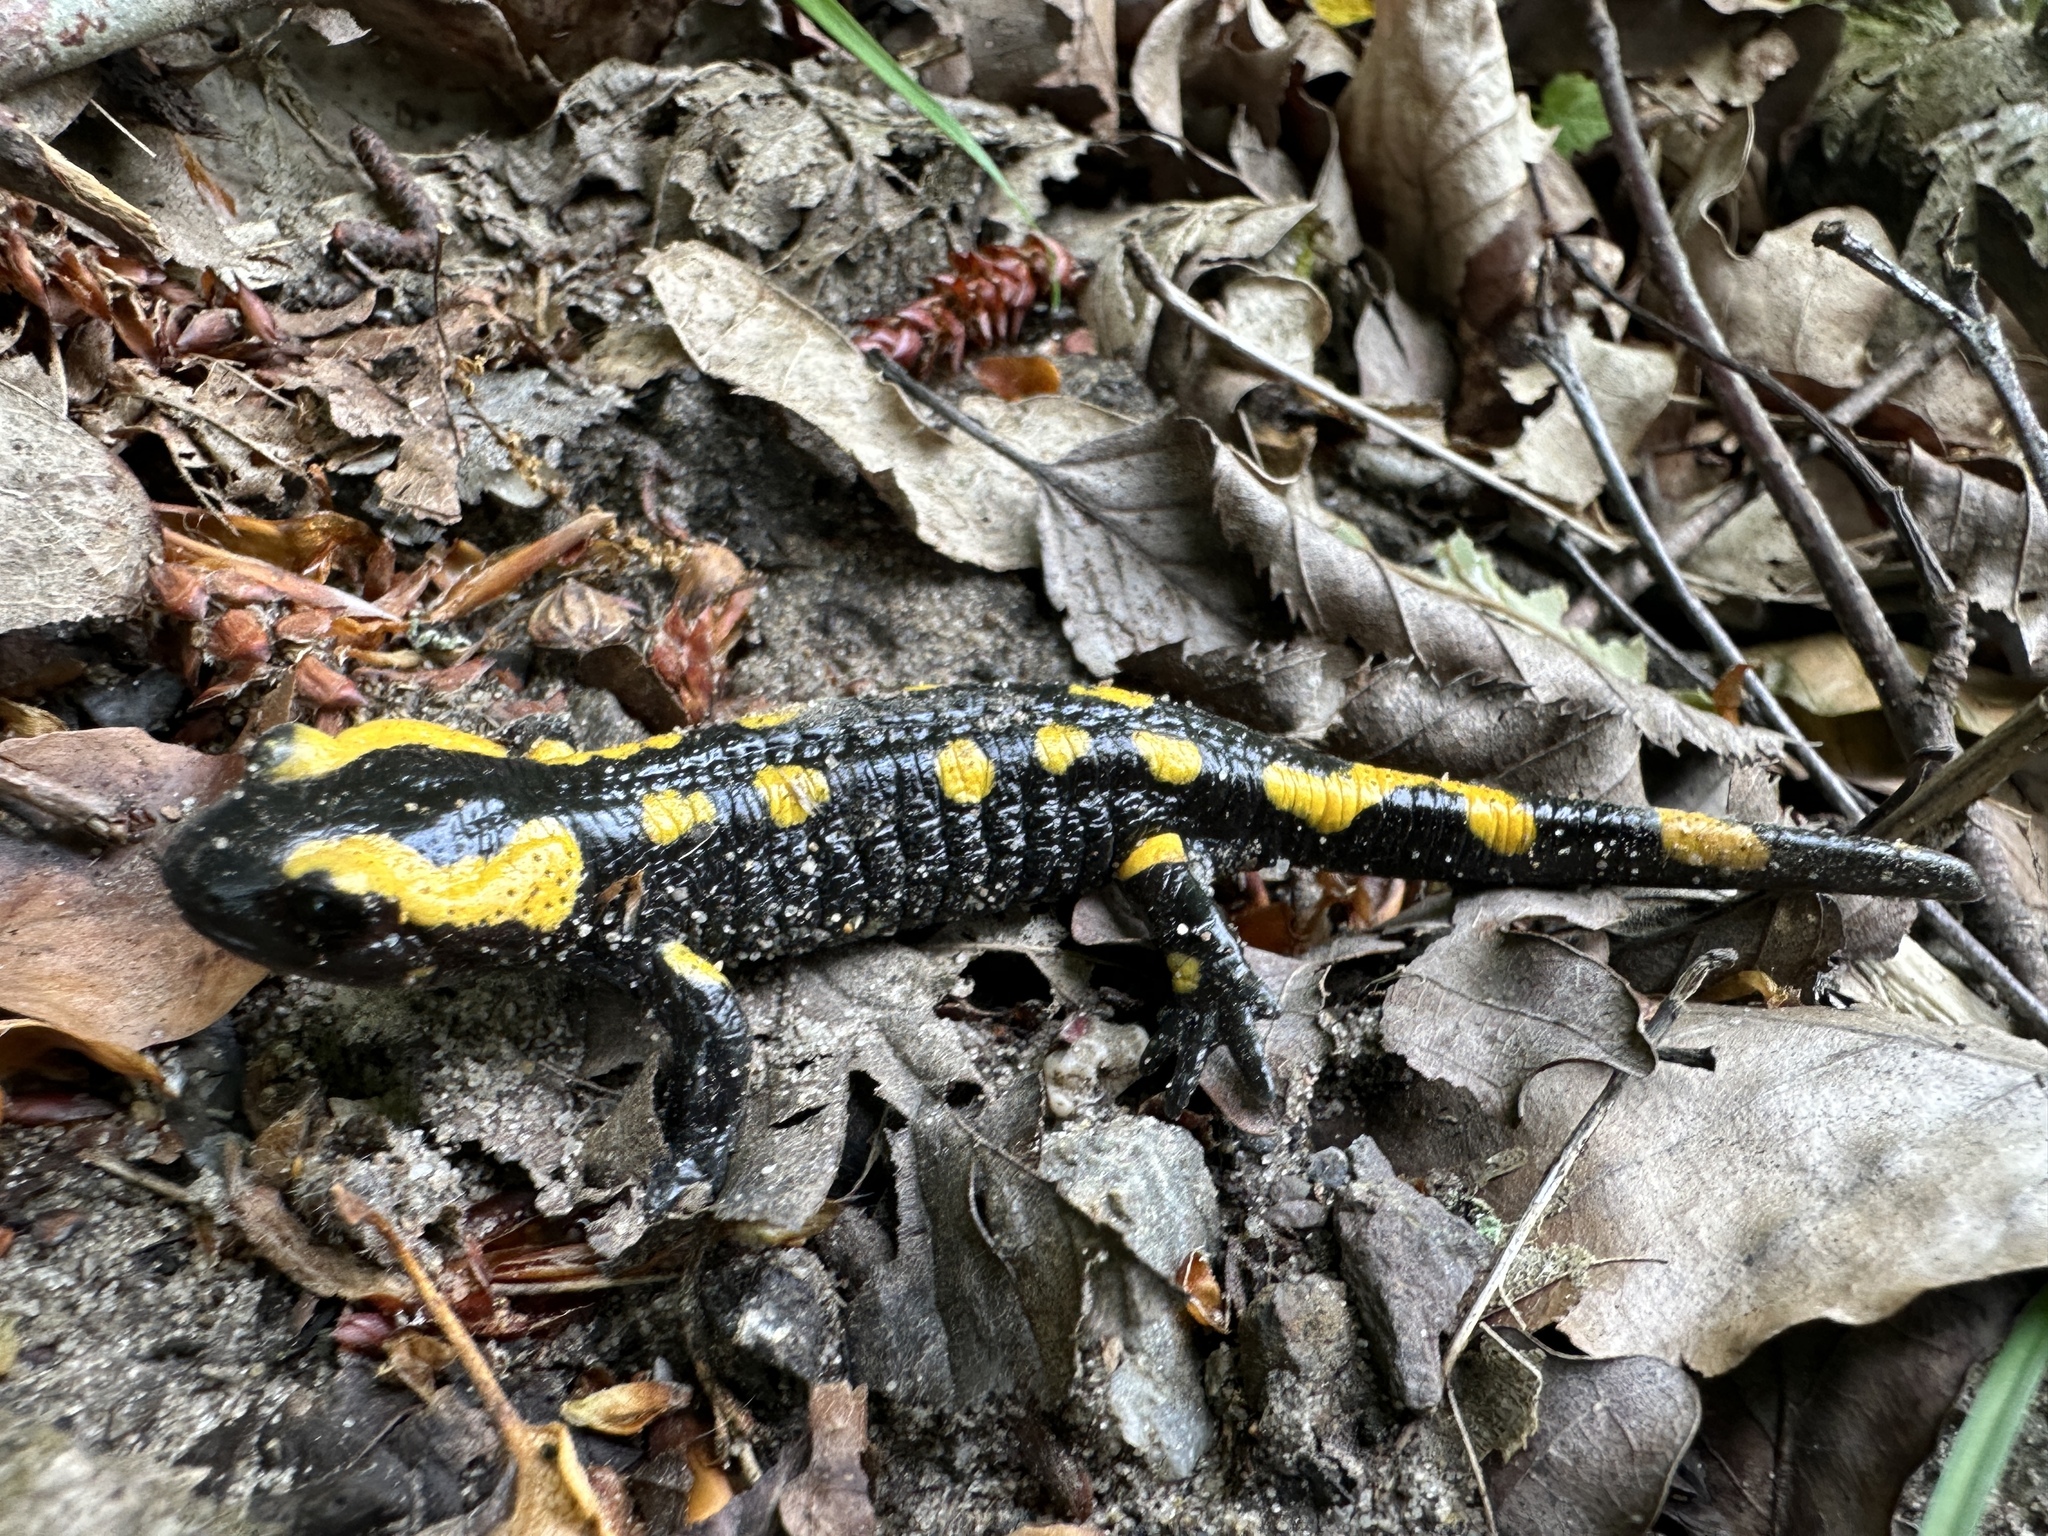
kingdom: Animalia
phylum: Chordata
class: Amphibia
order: Caudata
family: Salamandridae
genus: Salamandra
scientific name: Salamandra salamandra
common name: Fire salamander
